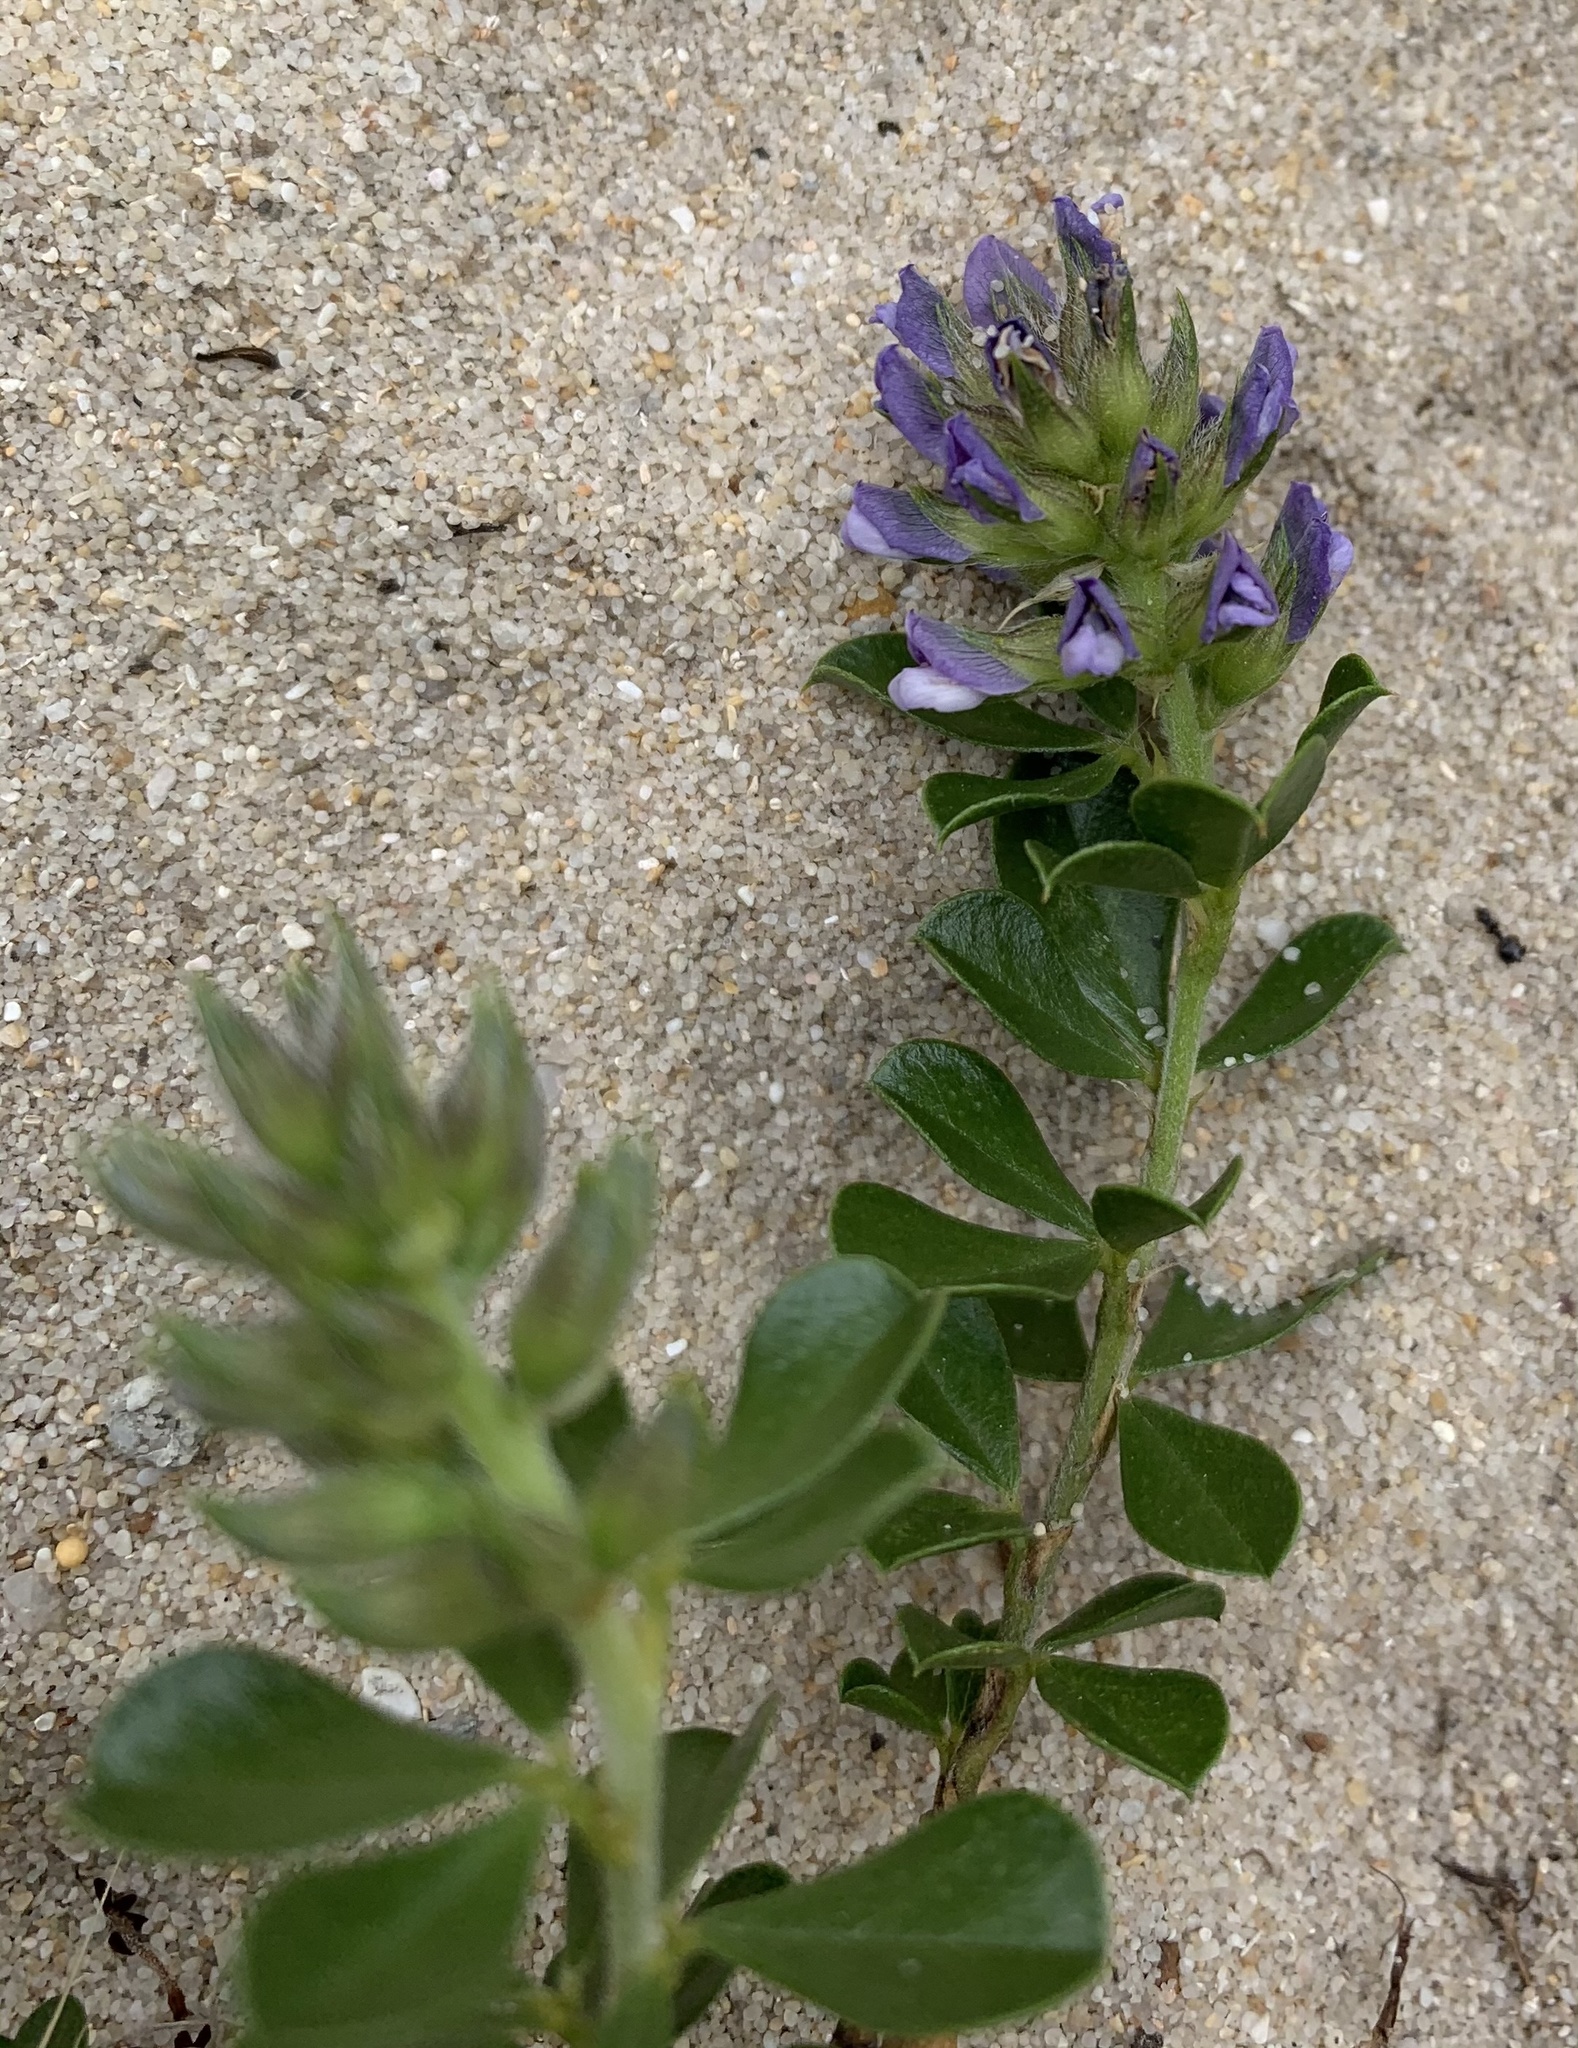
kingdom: Plantae
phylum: Tracheophyta
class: Magnoliopsida
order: Fabales
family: Fabaceae
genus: Psoralea
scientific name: Psoralea bracteolata
